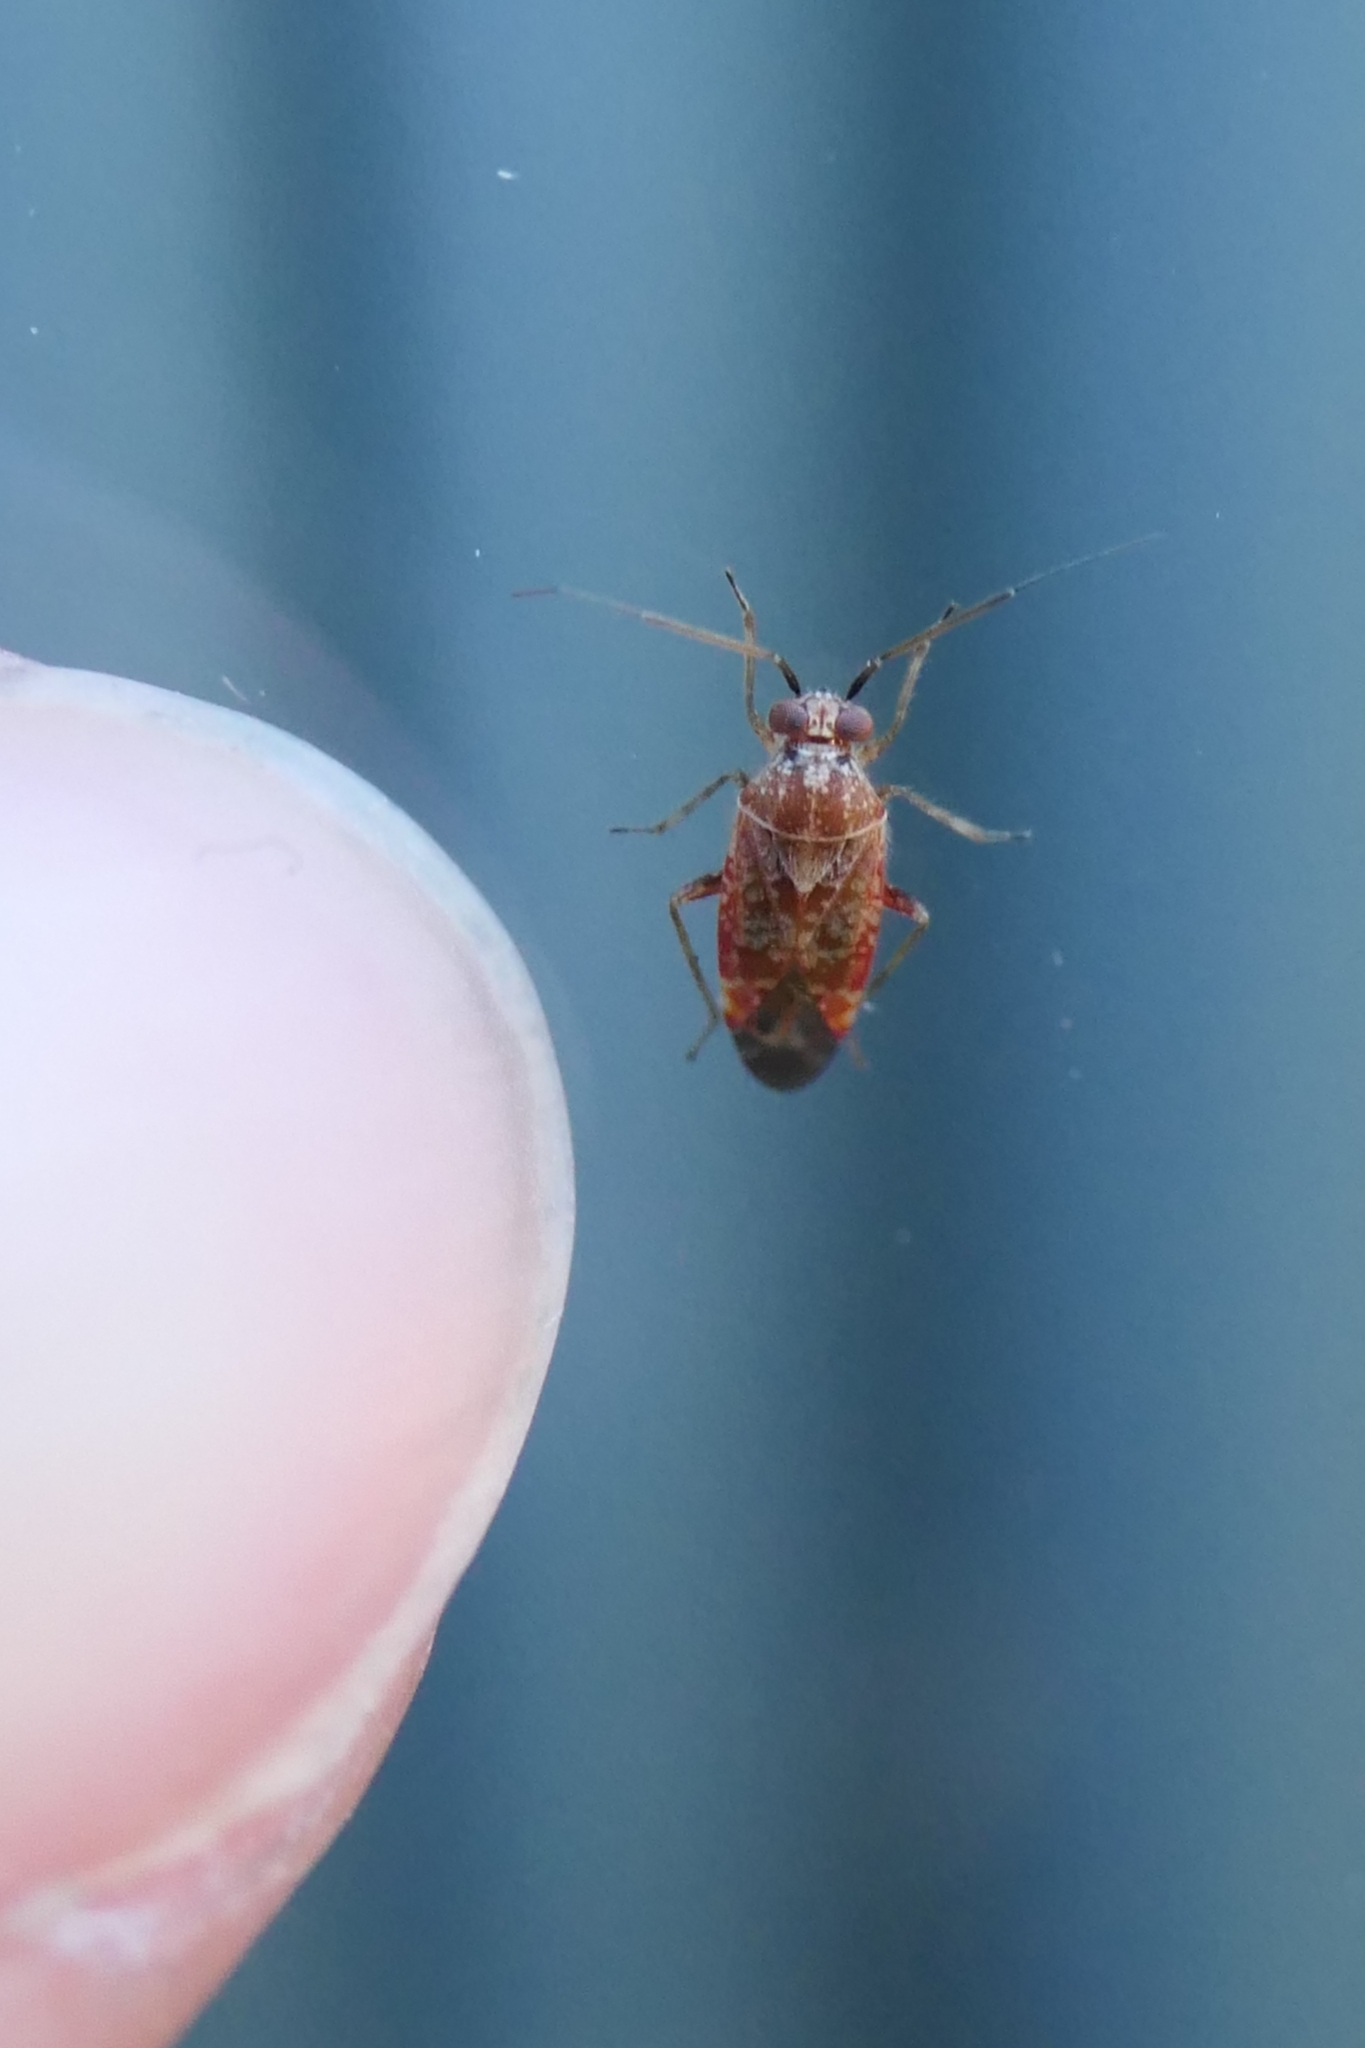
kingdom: Animalia
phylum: Arthropoda
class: Insecta
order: Hemiptera
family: Miridae
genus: Tinginotum
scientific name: Tinginotum minutum
